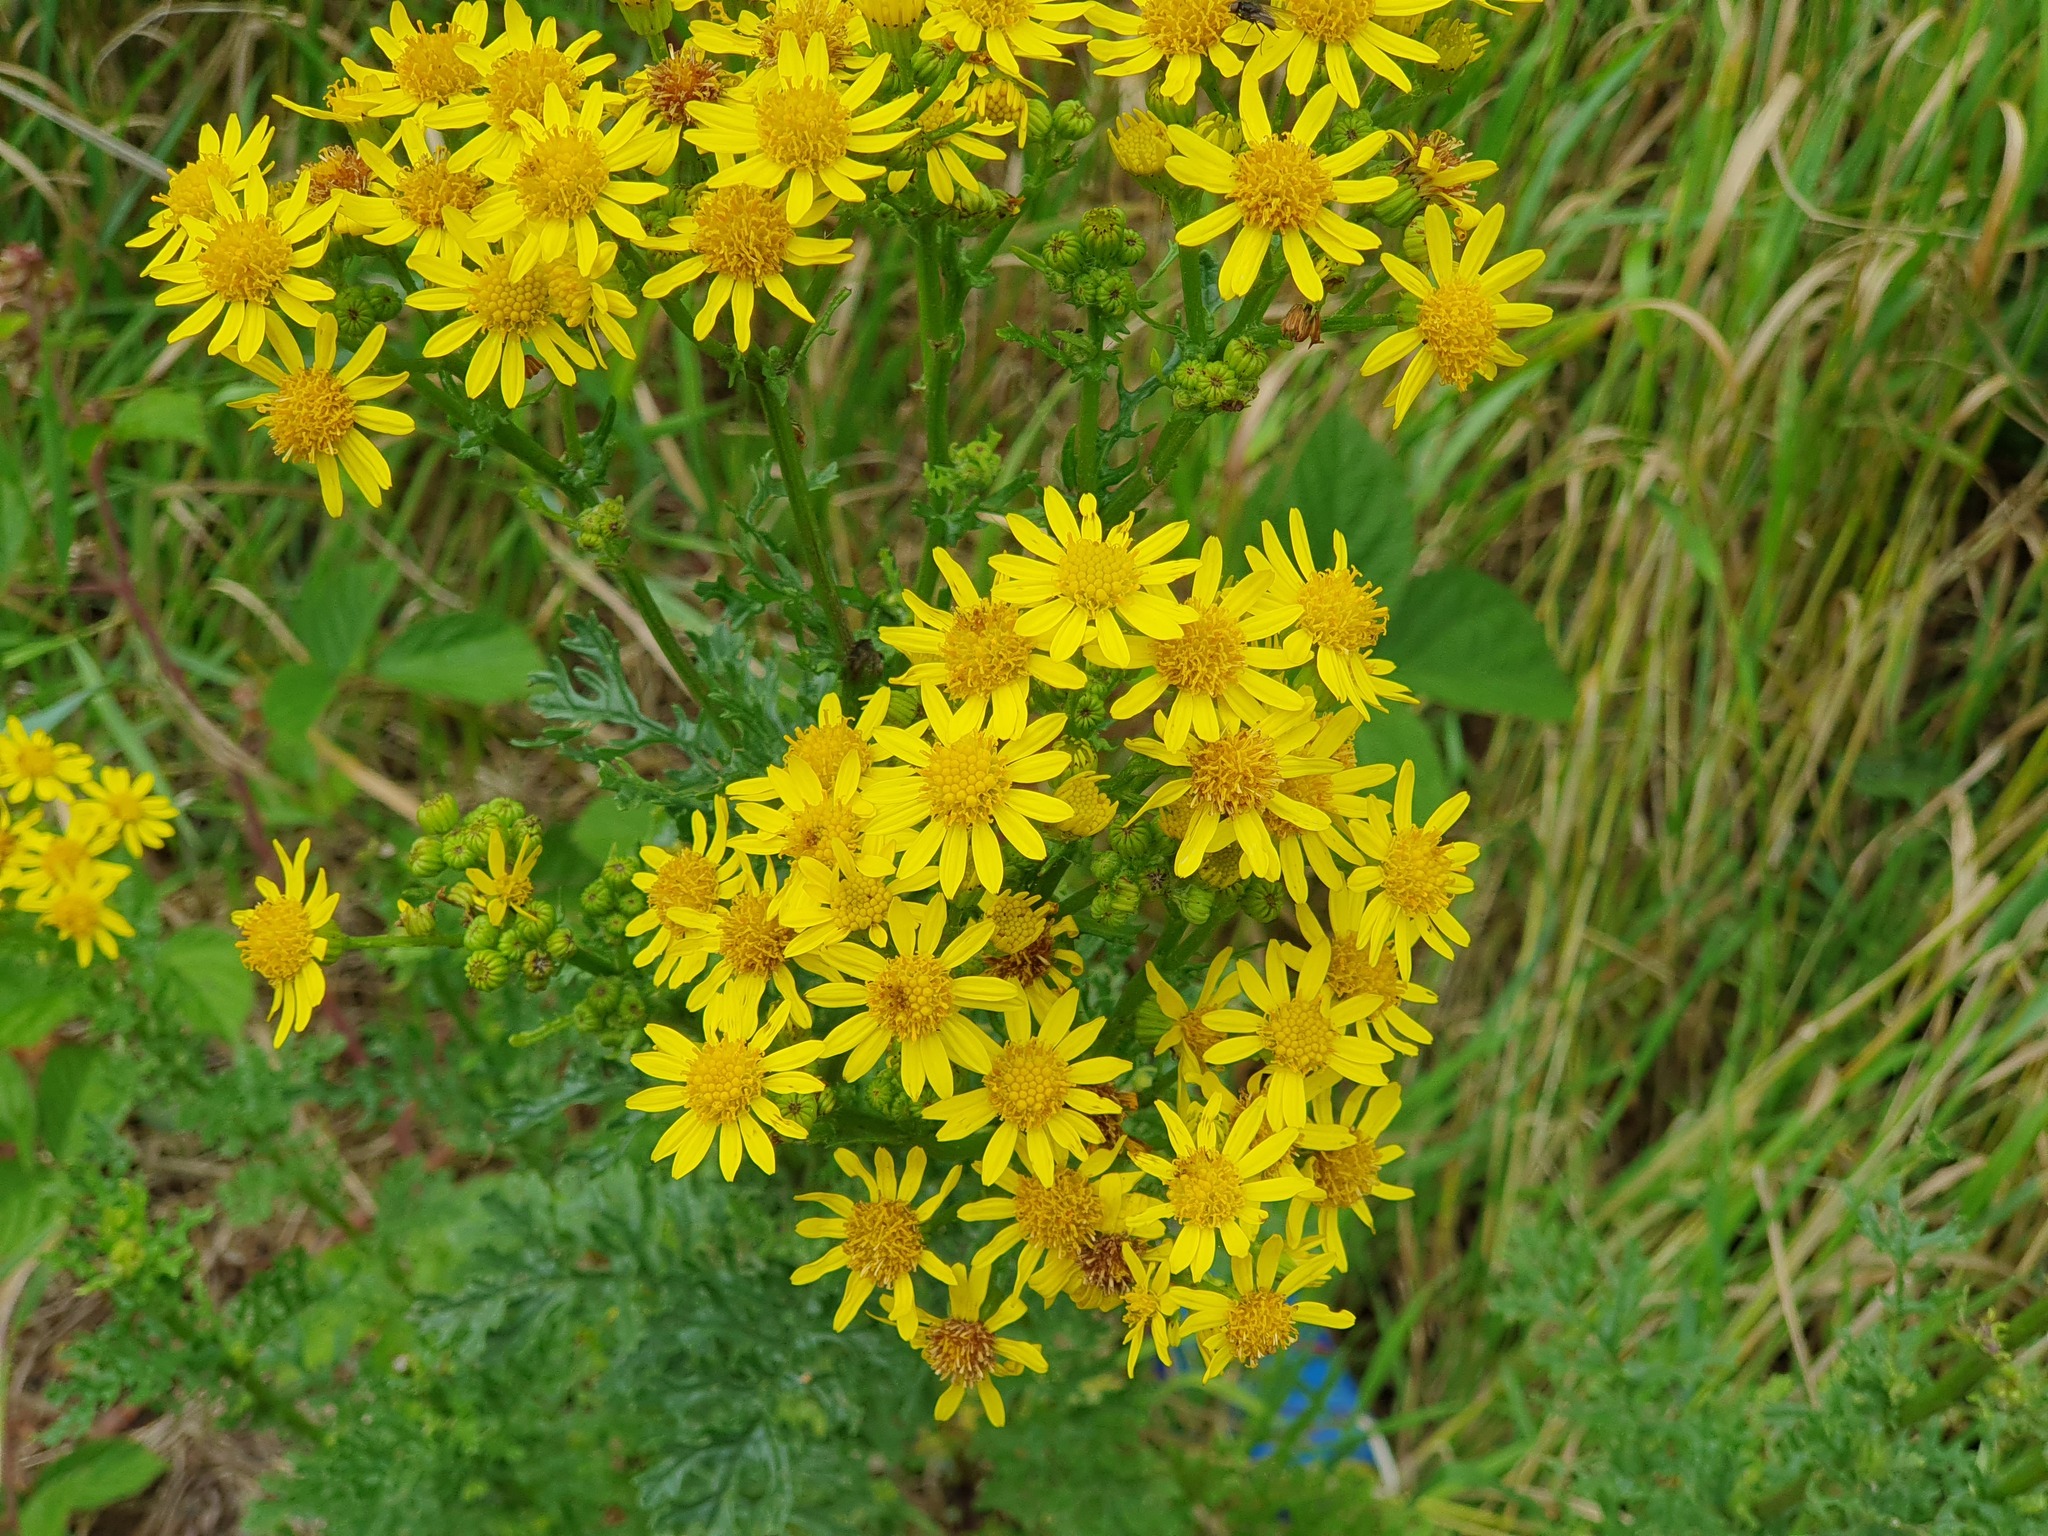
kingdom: Plantae
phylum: Tracheophyta
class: Magnoliopsida
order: Asterales
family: Asteraceae
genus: Jacobaea
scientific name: Jacobaea vulgaris
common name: Stinking willie
